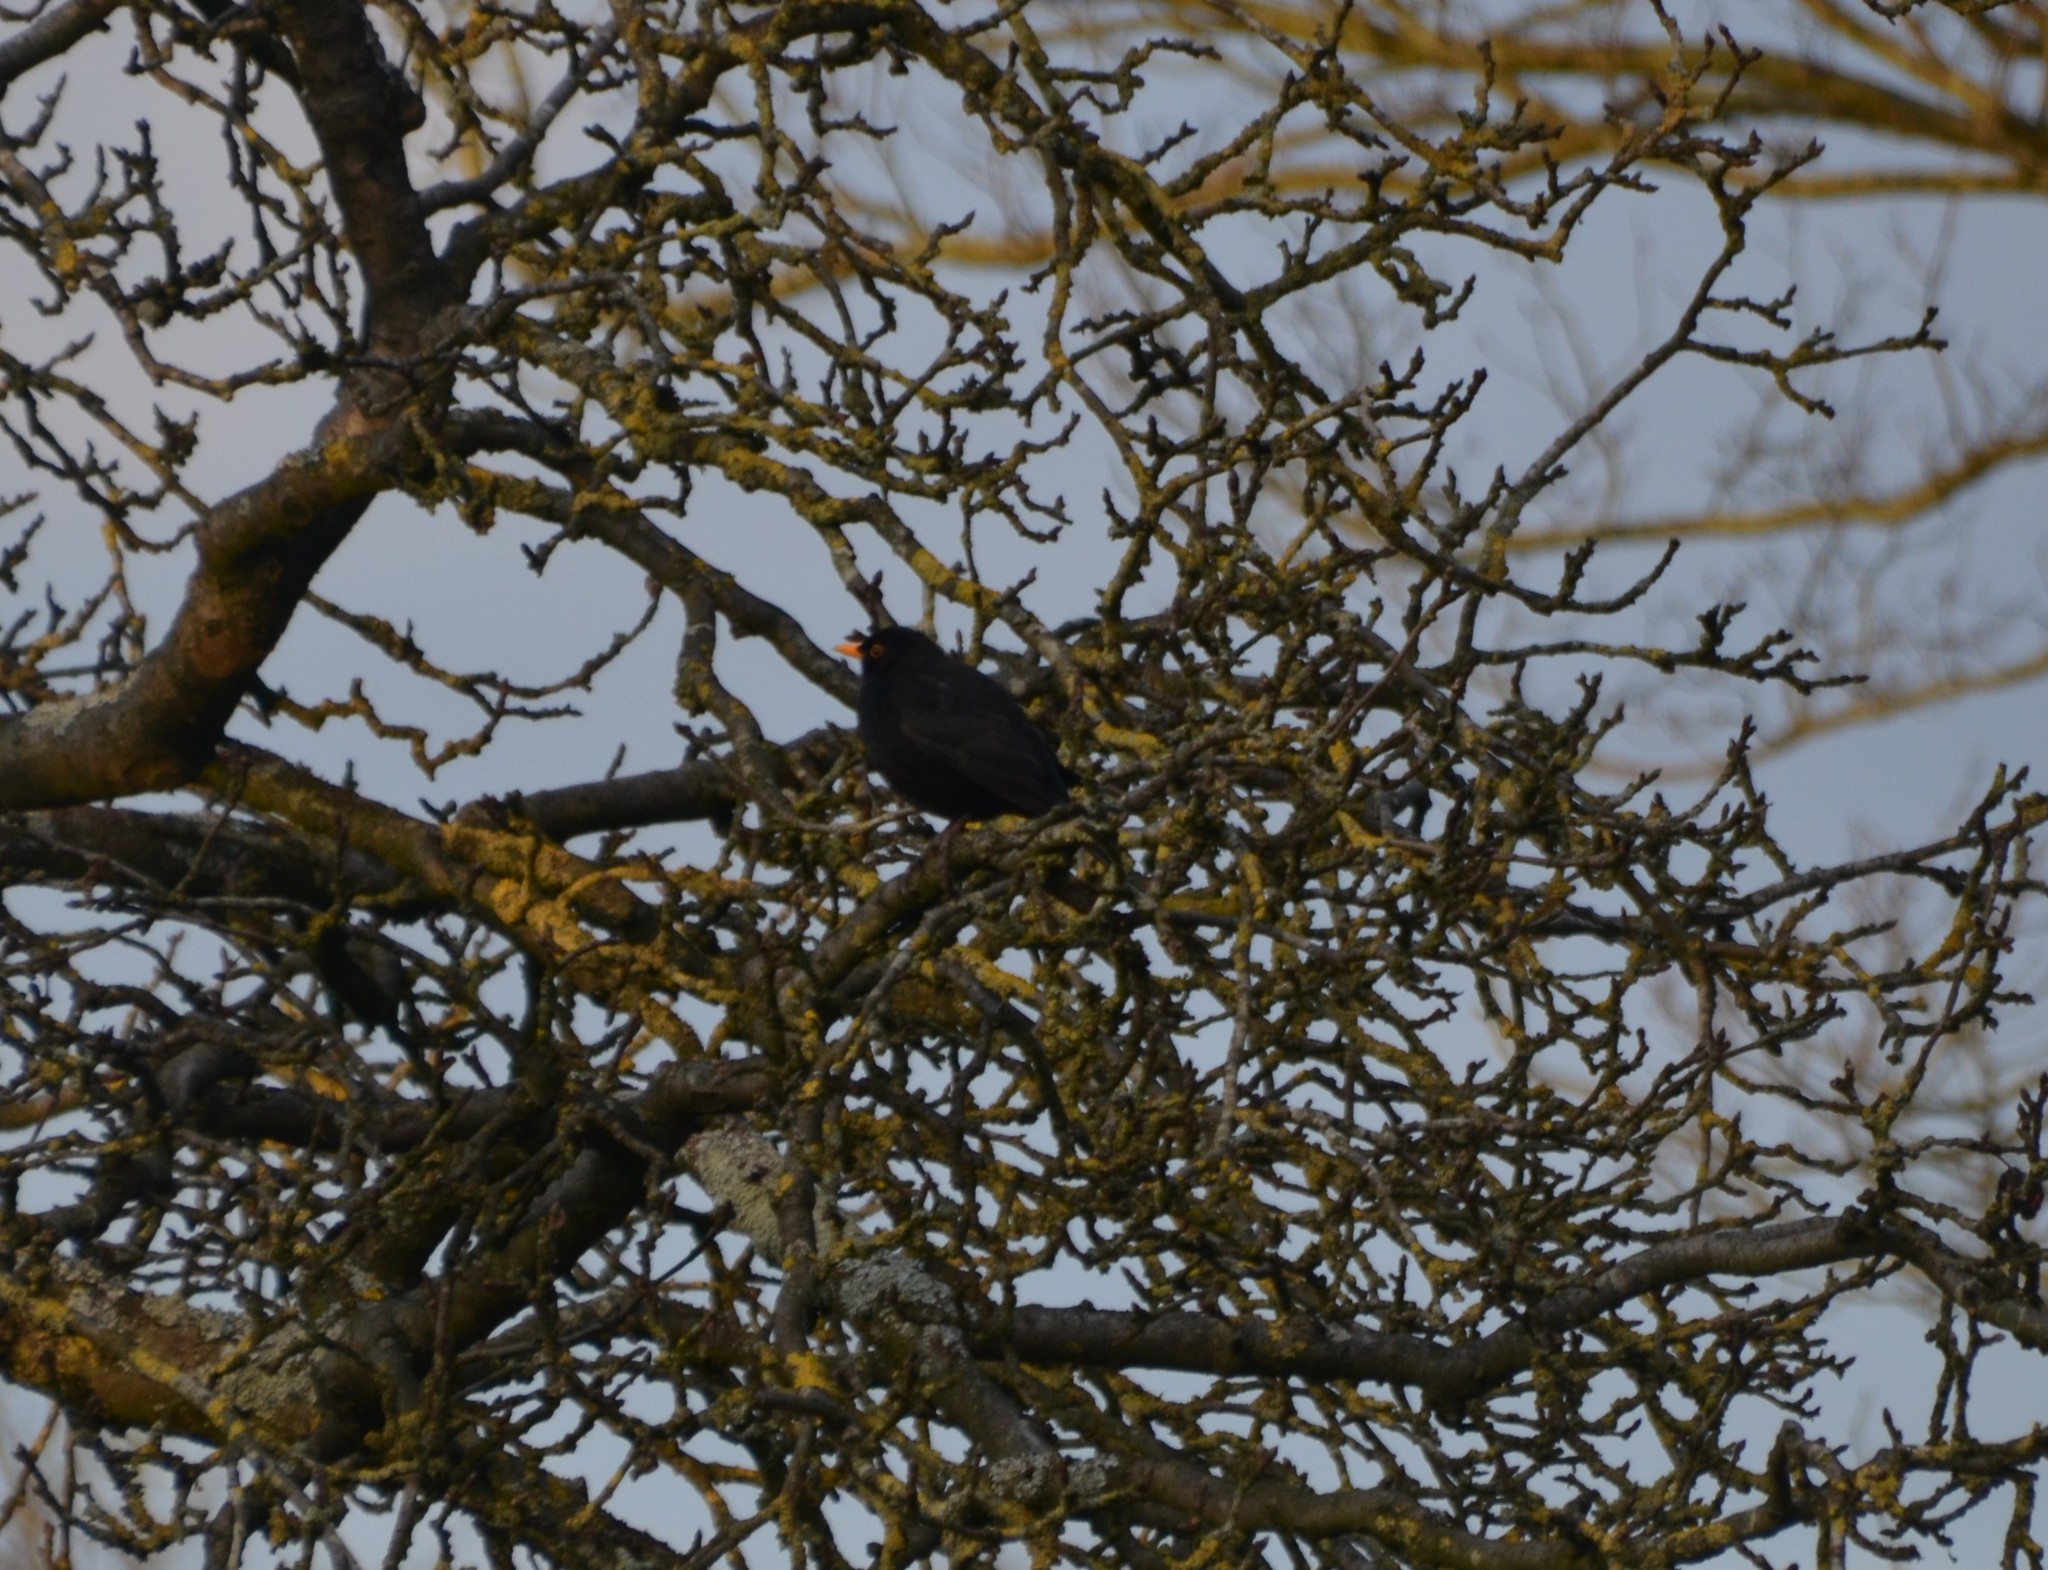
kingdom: Animalia
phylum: Chordata
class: Aves
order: Passeriformes
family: Turdidae
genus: Turdus
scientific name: Turdus merula
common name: Common blackbird
